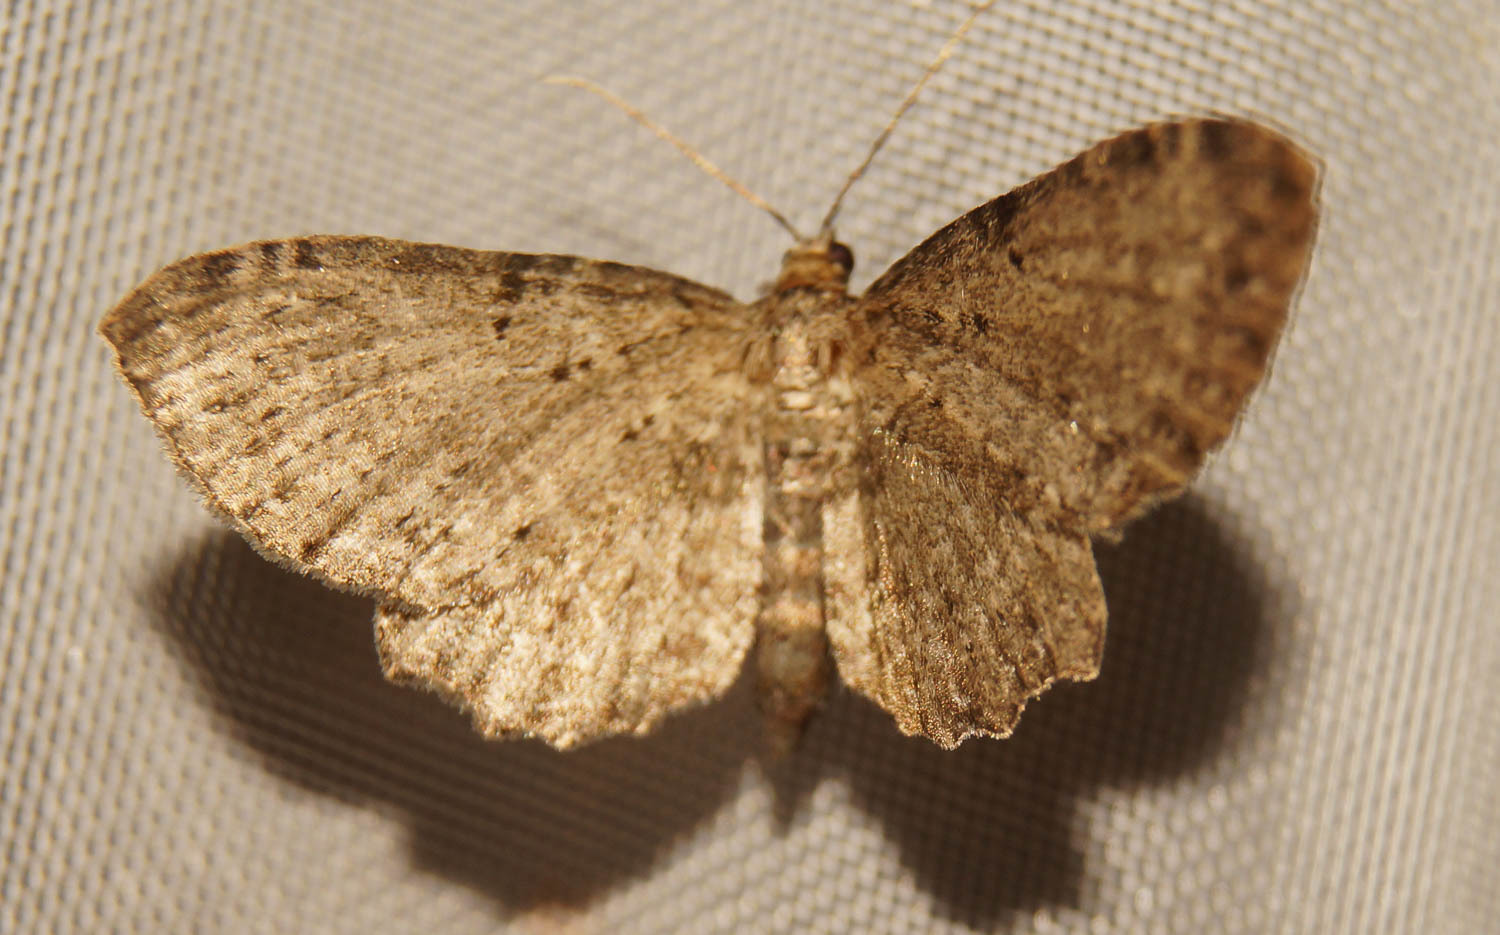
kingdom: Animalia
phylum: Arthropoda
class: Insecta
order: Lepidoptera
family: Geometridae
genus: Anticollix
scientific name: Anticollix sparsata
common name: Dentated pug
